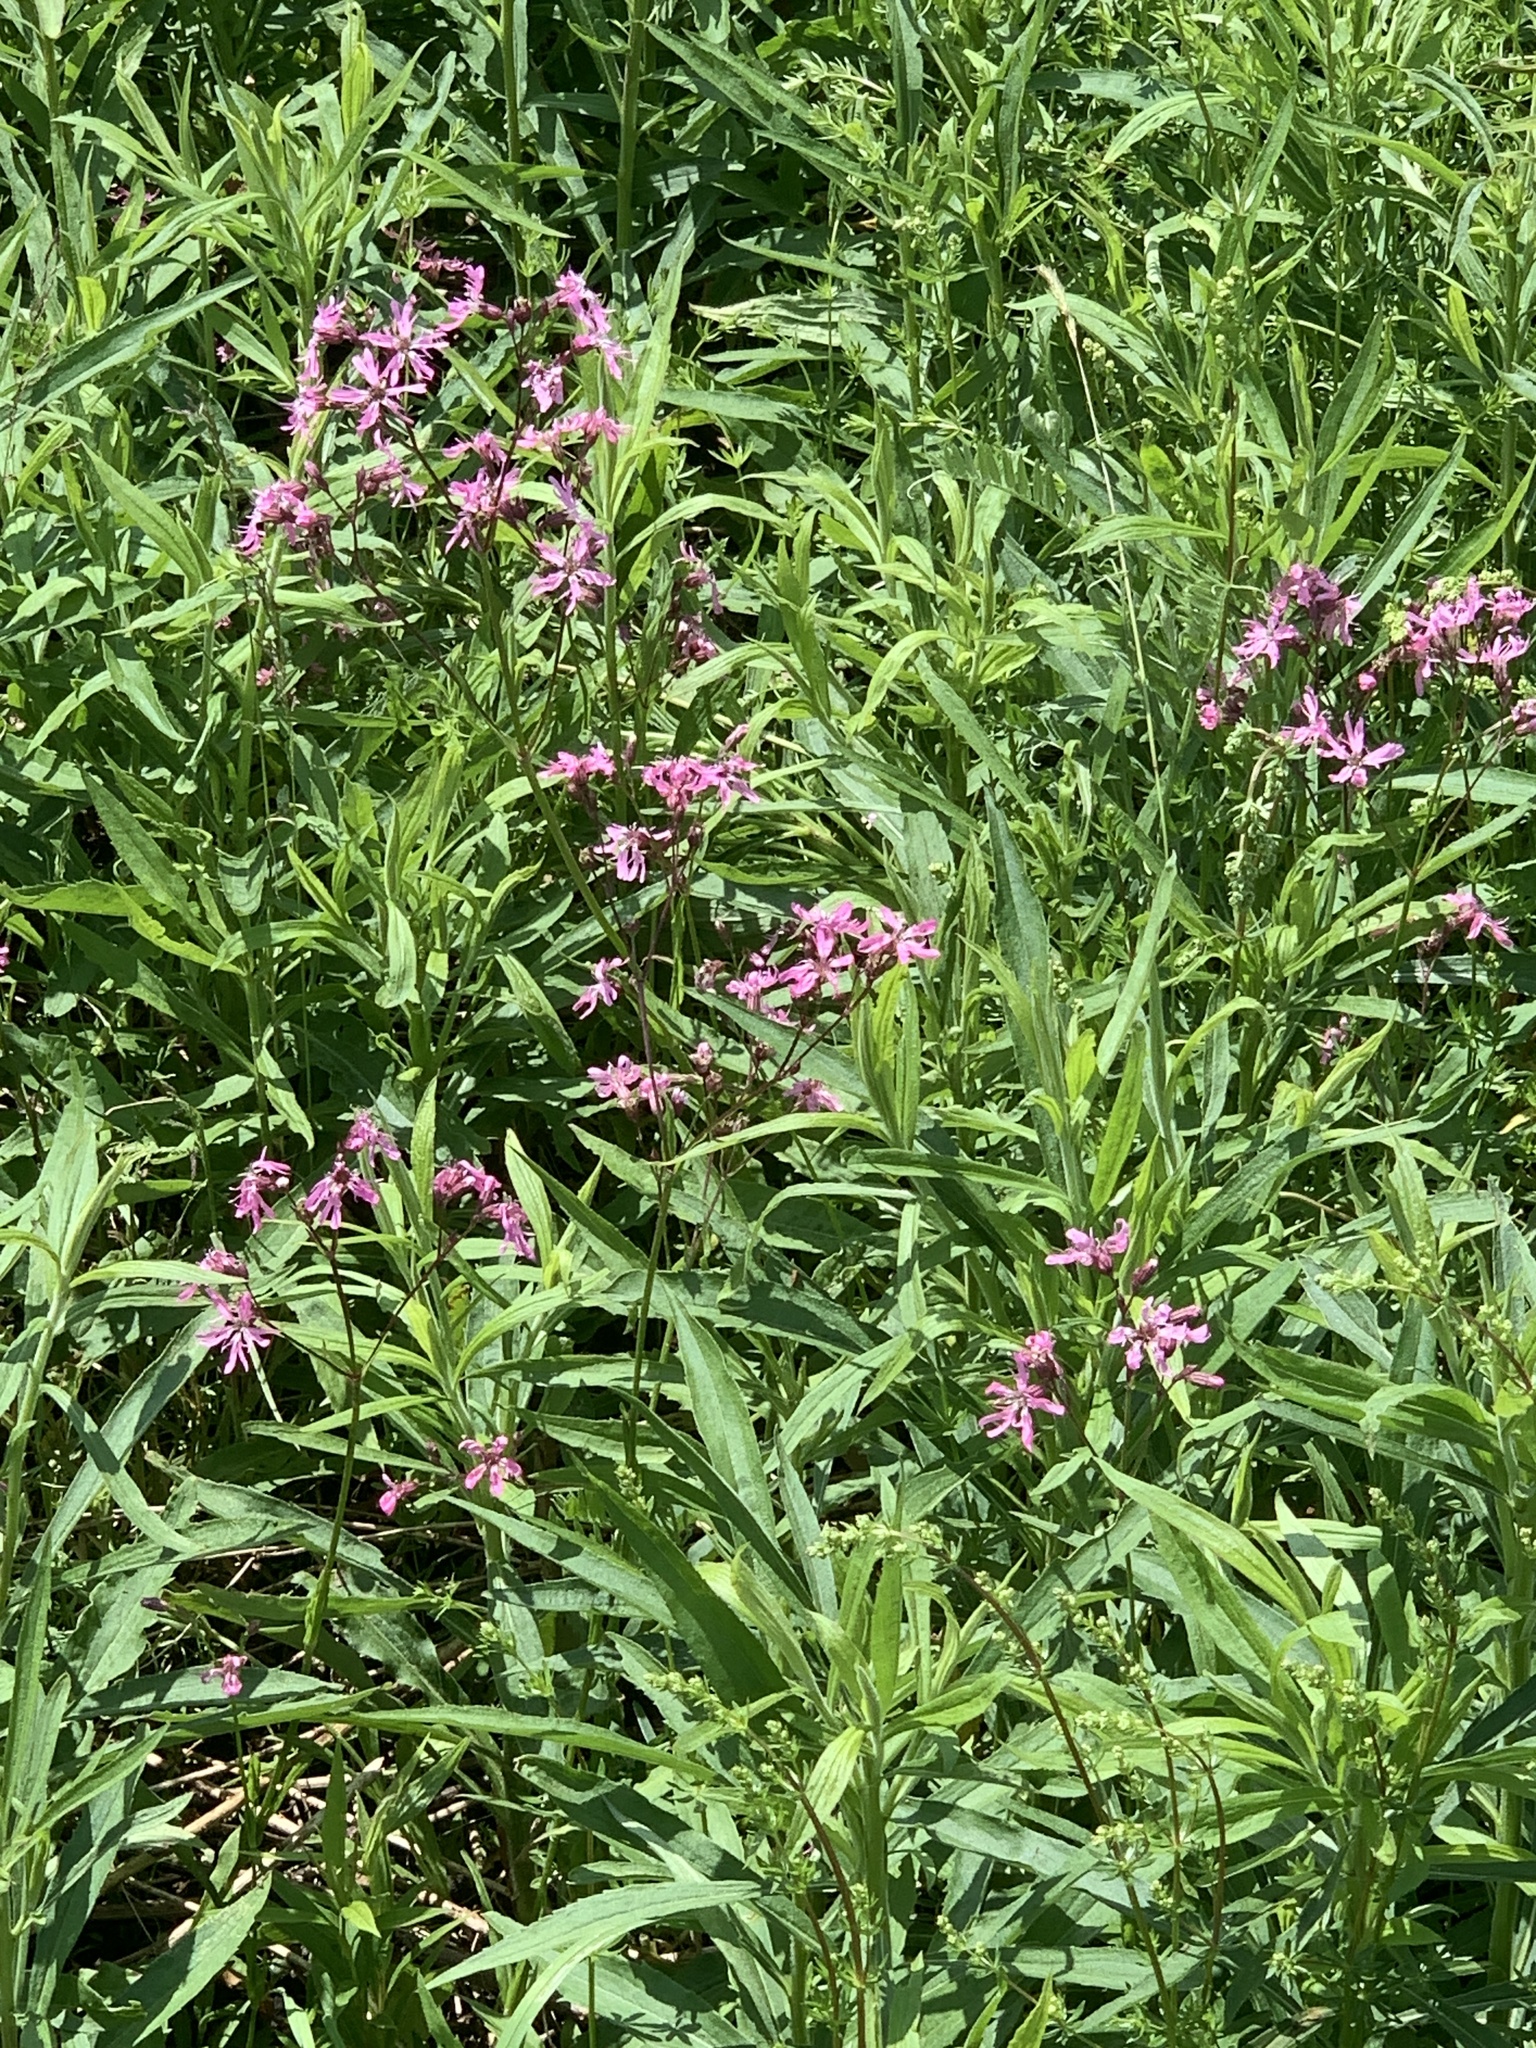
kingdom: Plantae
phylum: Tracheophyta
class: Magnoliopsida
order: Caryophyllales
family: Caryophyllaceae
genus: Silene
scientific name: Silene flos-cuculi
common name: Ragged-robin
